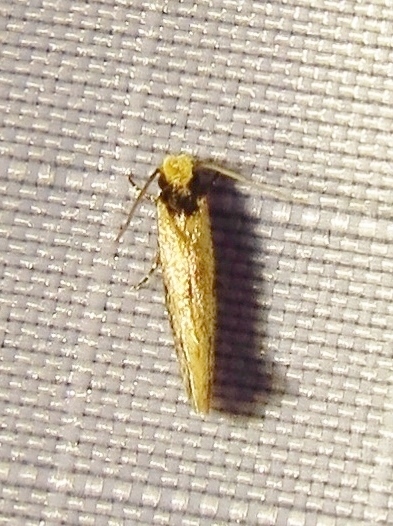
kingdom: Animalia
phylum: Arthropoda
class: Insecta
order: Lepidoptera
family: Meessiidae
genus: Homostinea
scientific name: Homostinea curviliniella
